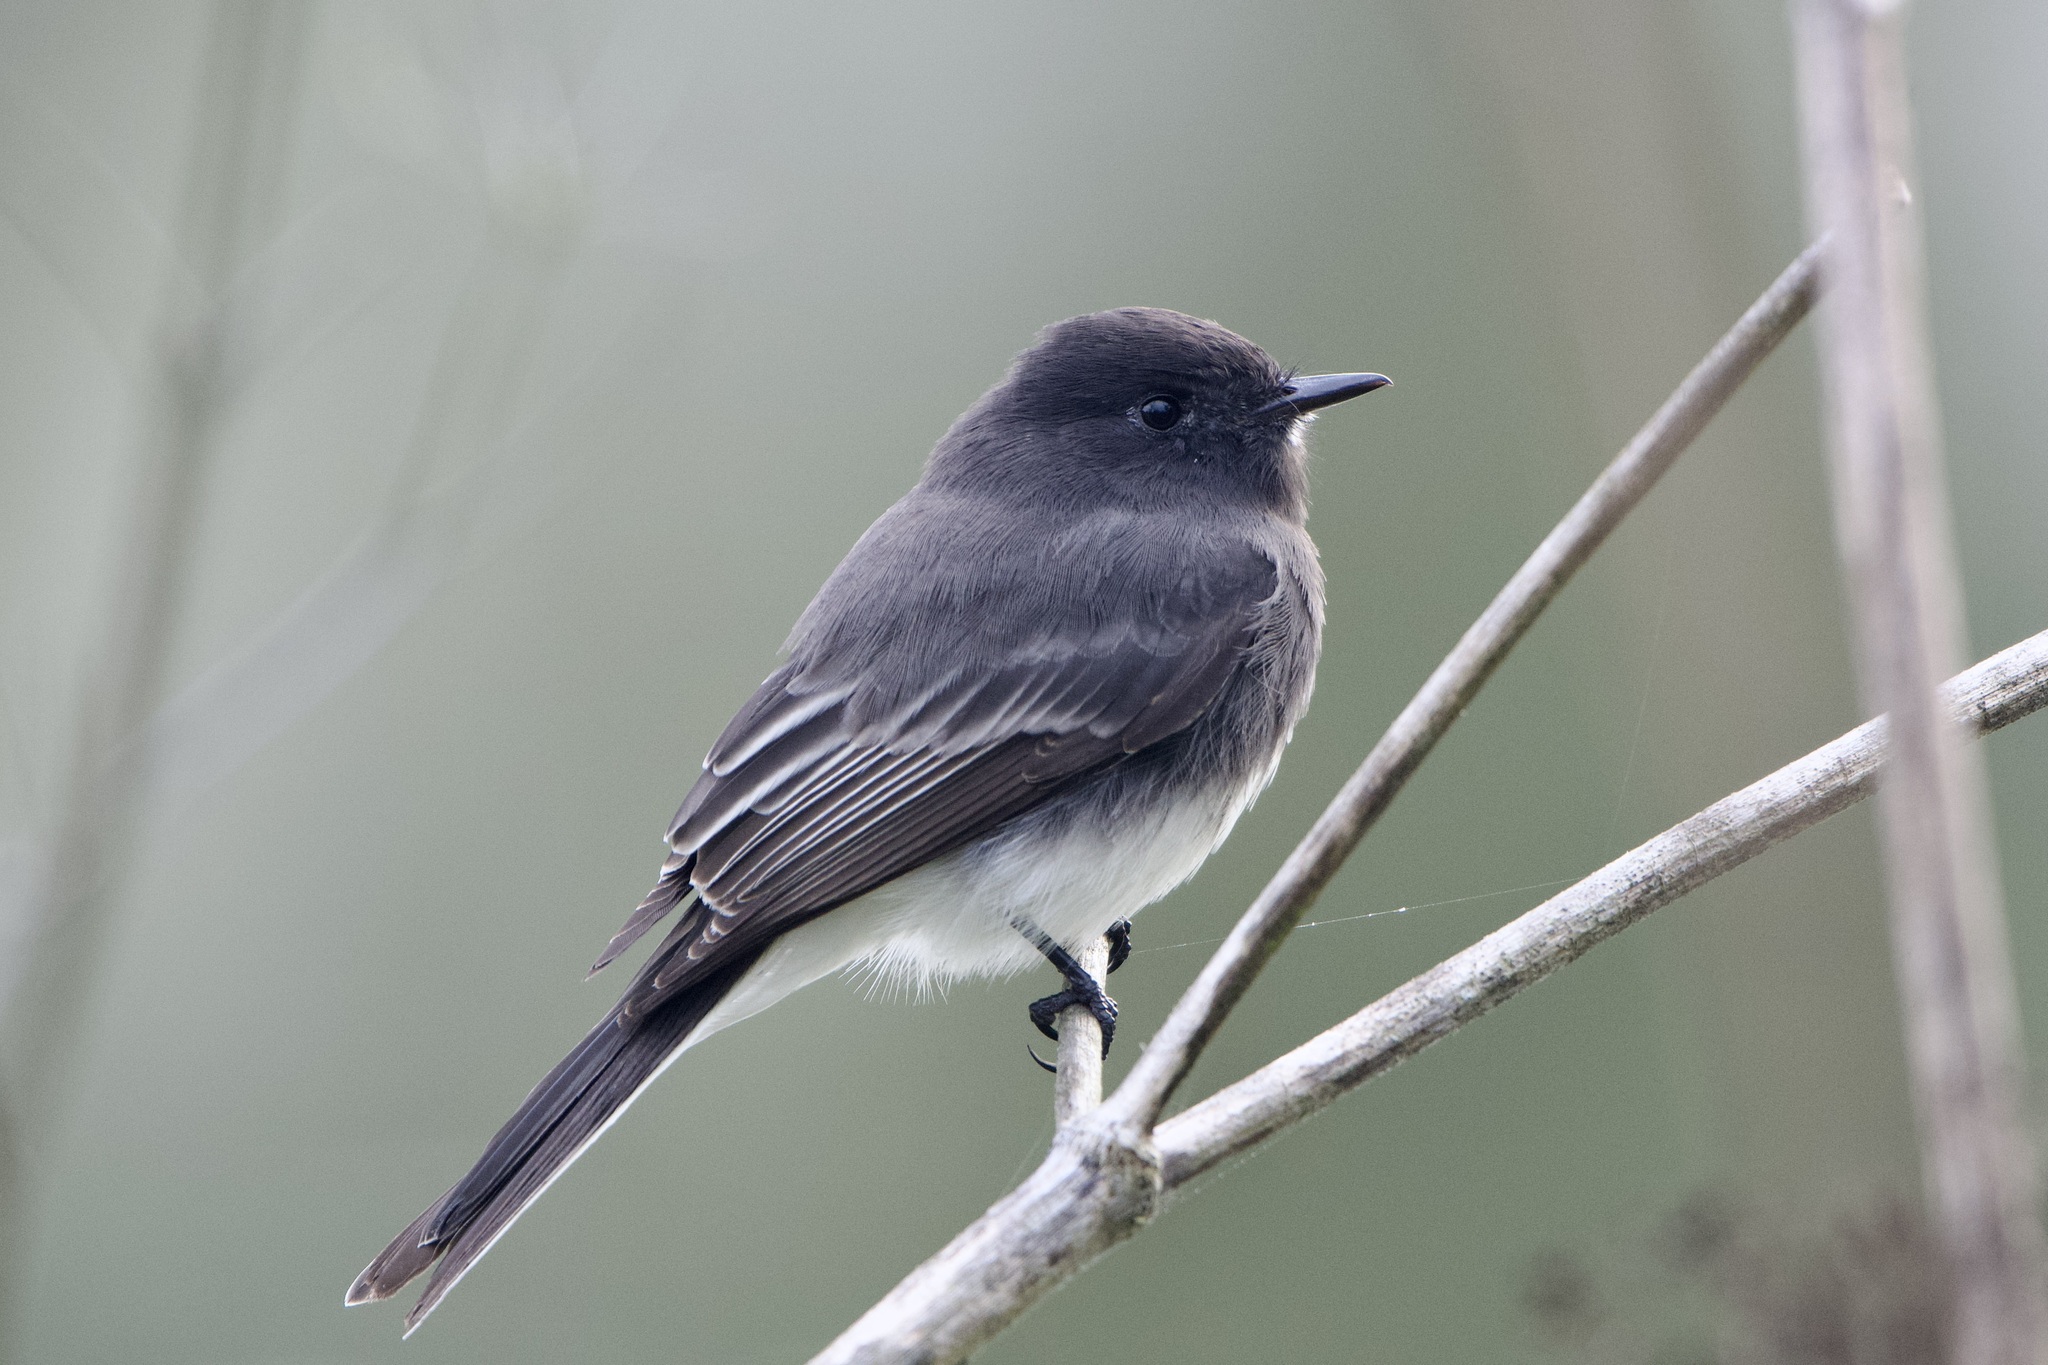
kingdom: Animalia
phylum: Chordata
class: Aves
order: Passeriformes
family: Tyrannidae
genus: Sayornis
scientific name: Sayornis nigricans
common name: Black phoebe
